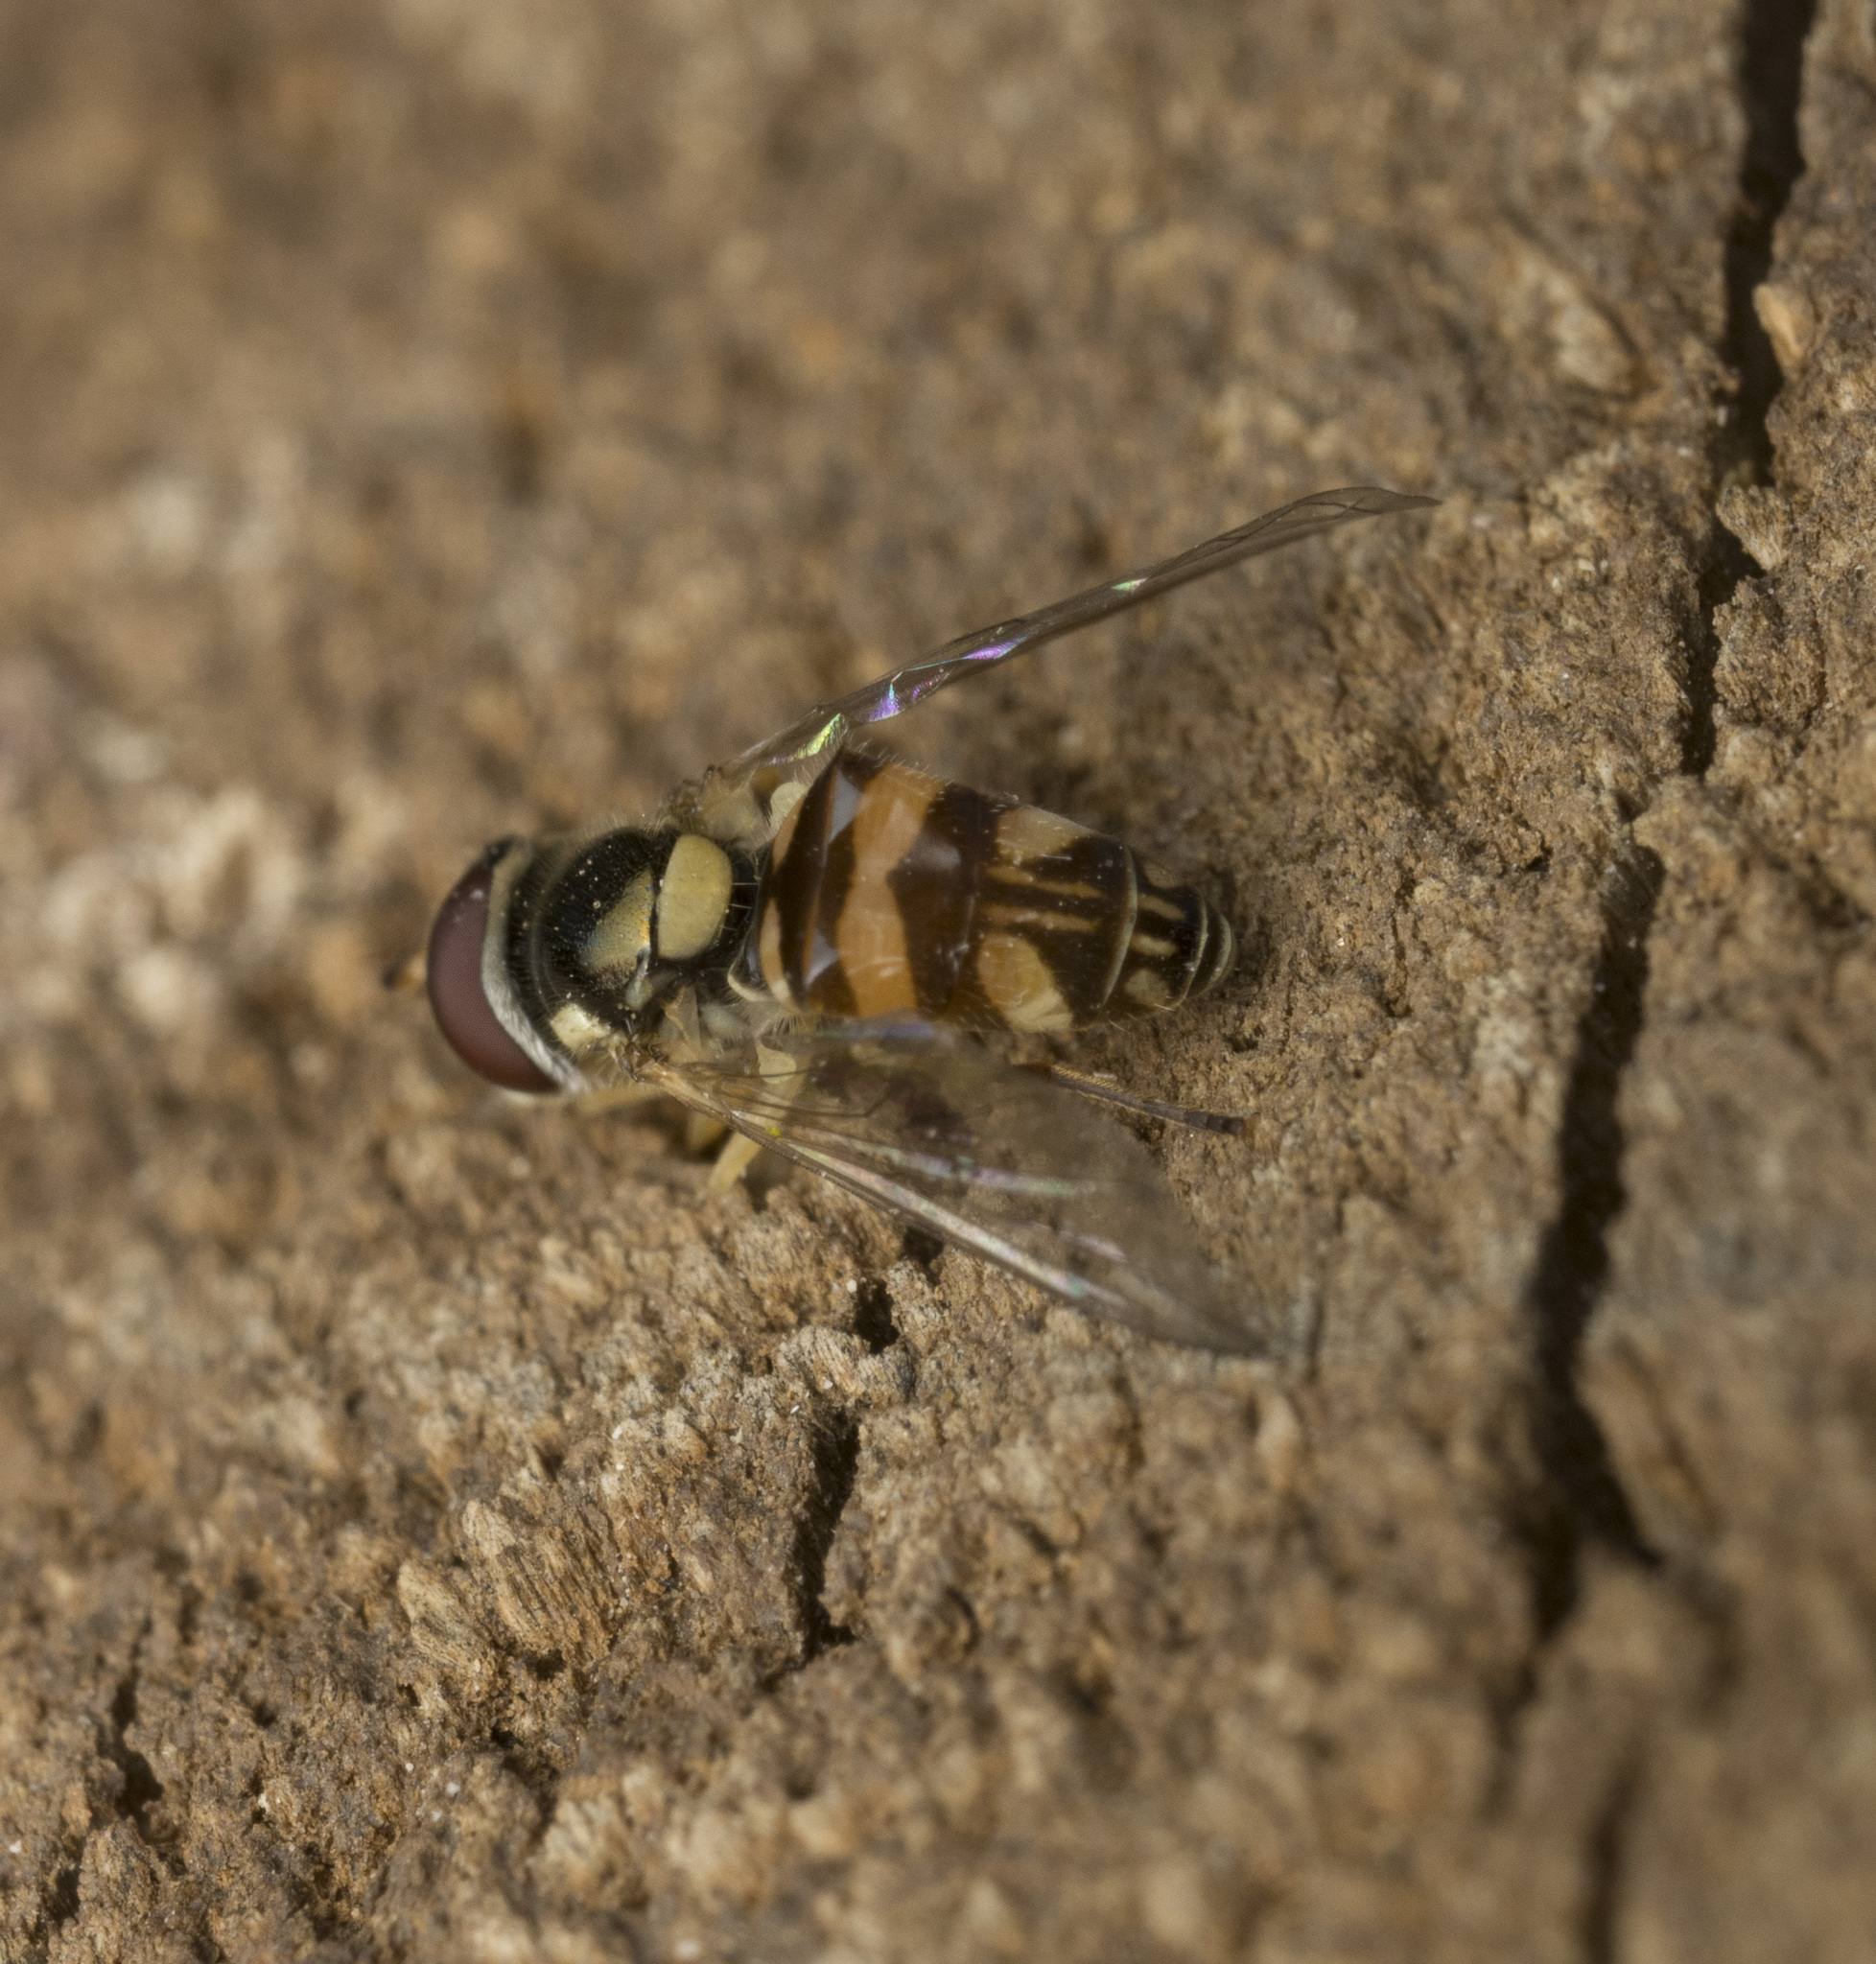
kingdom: Animalia
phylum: Arthropoda
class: Insecta
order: Diptera
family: Syrphidae
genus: Allograpta
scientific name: Allograpta exotica
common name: Syrphid fly
